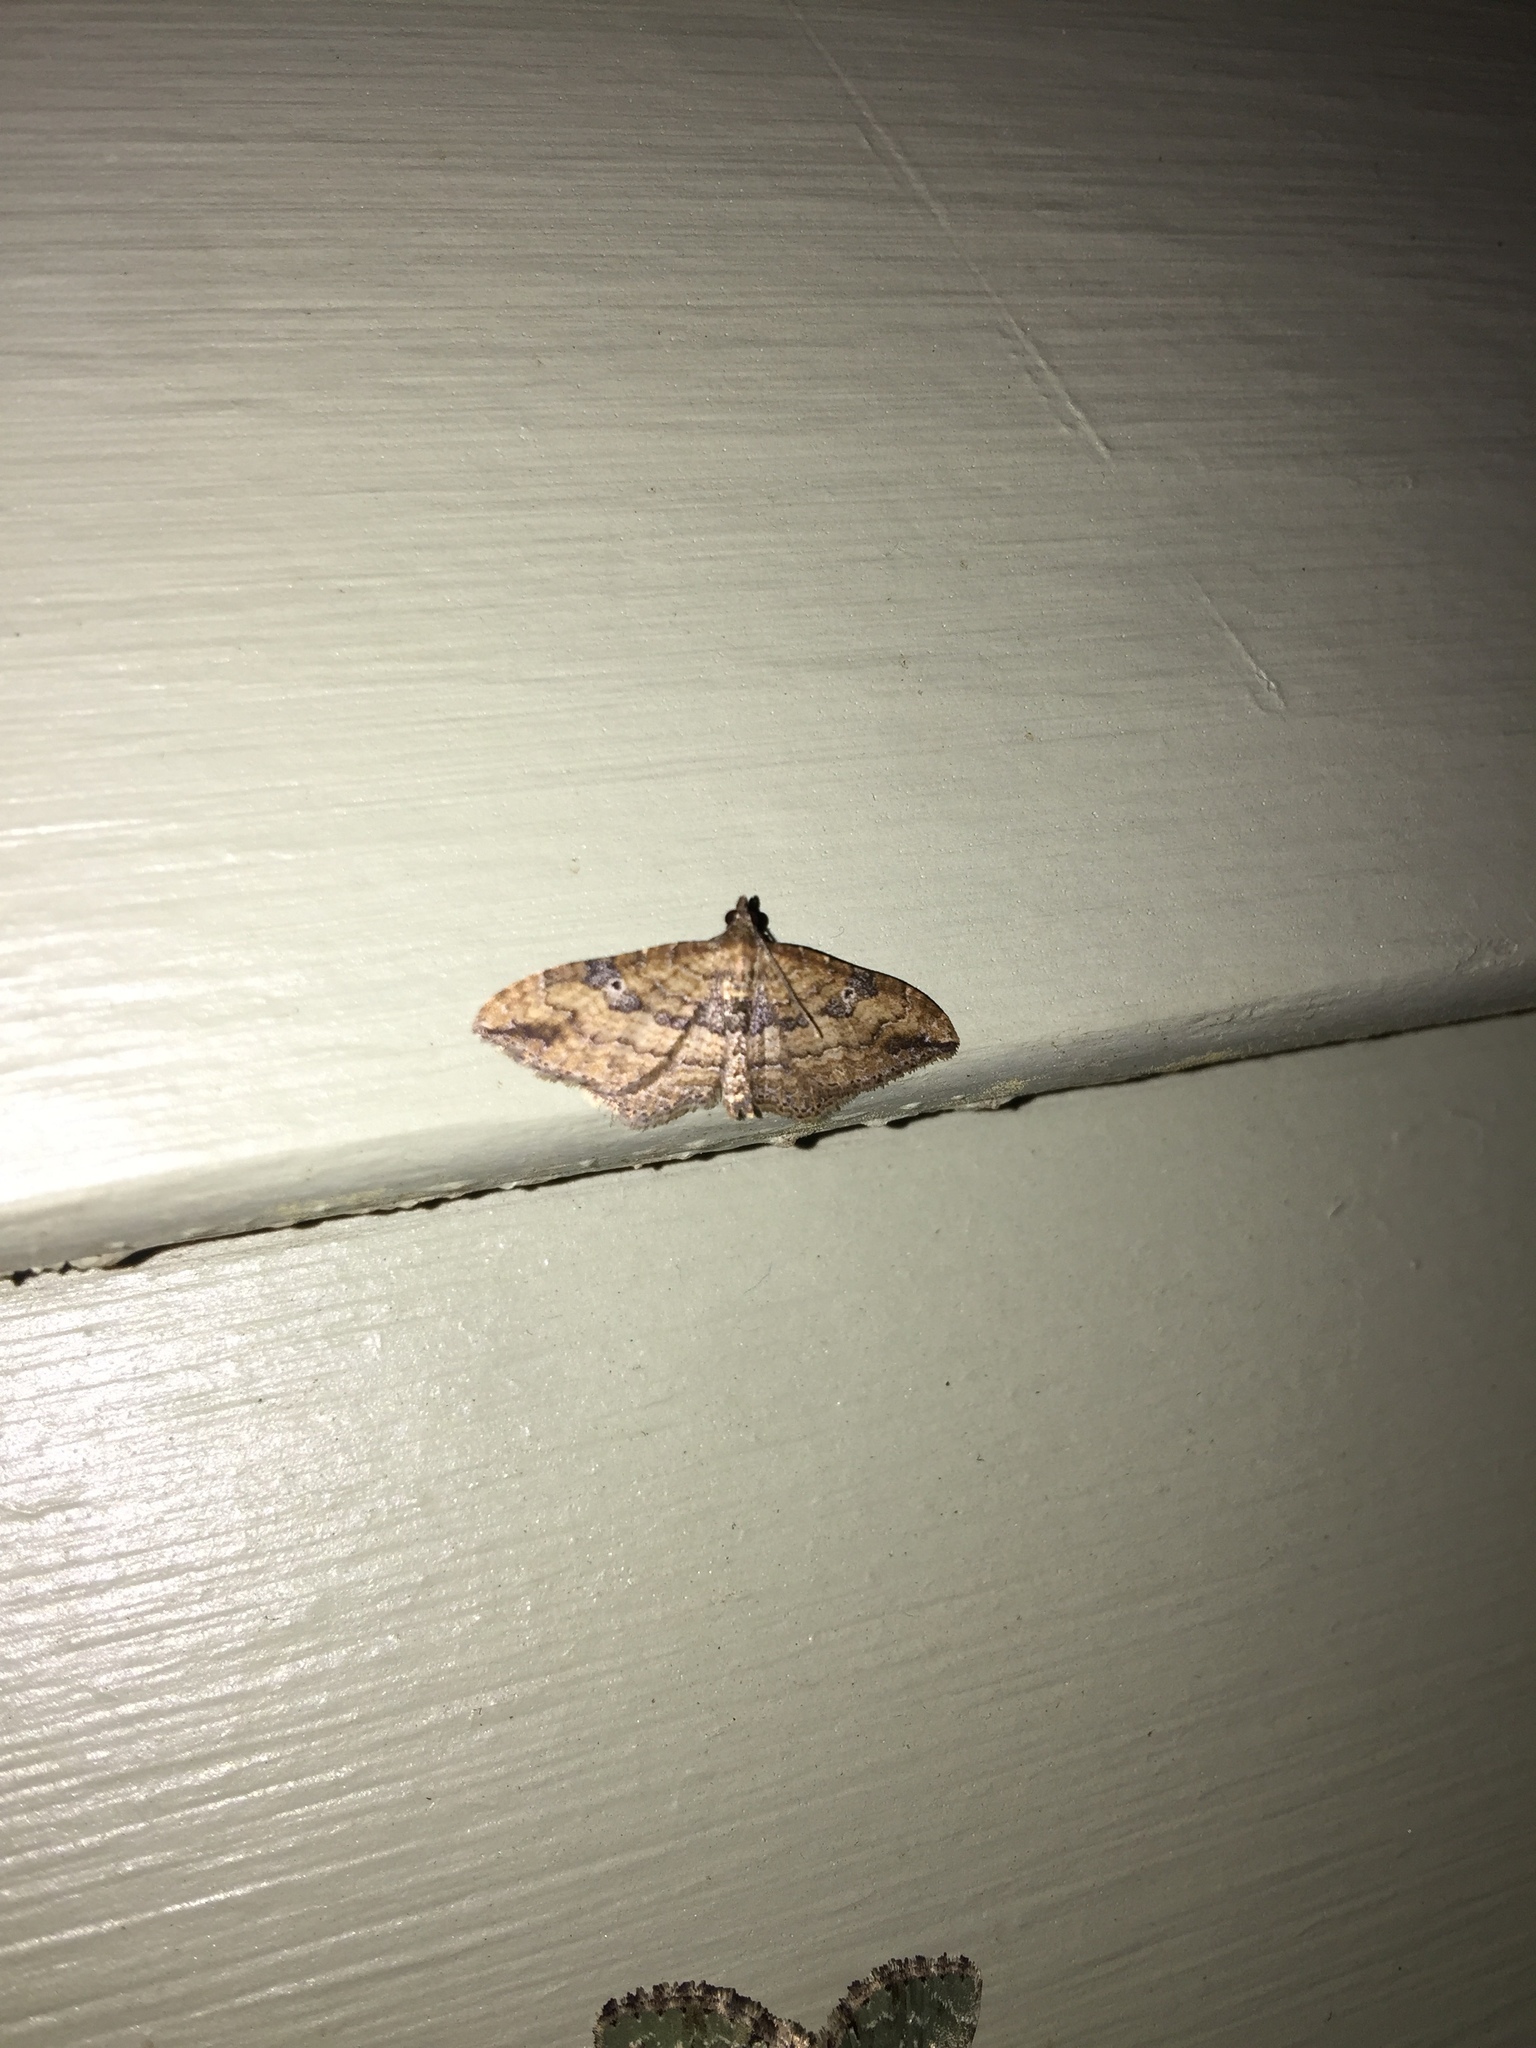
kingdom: Animalia
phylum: Arthropoda
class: Insecta
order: Lepidoptera
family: Geometridae
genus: Orthonama
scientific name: Orthonama obstipata
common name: The gem
